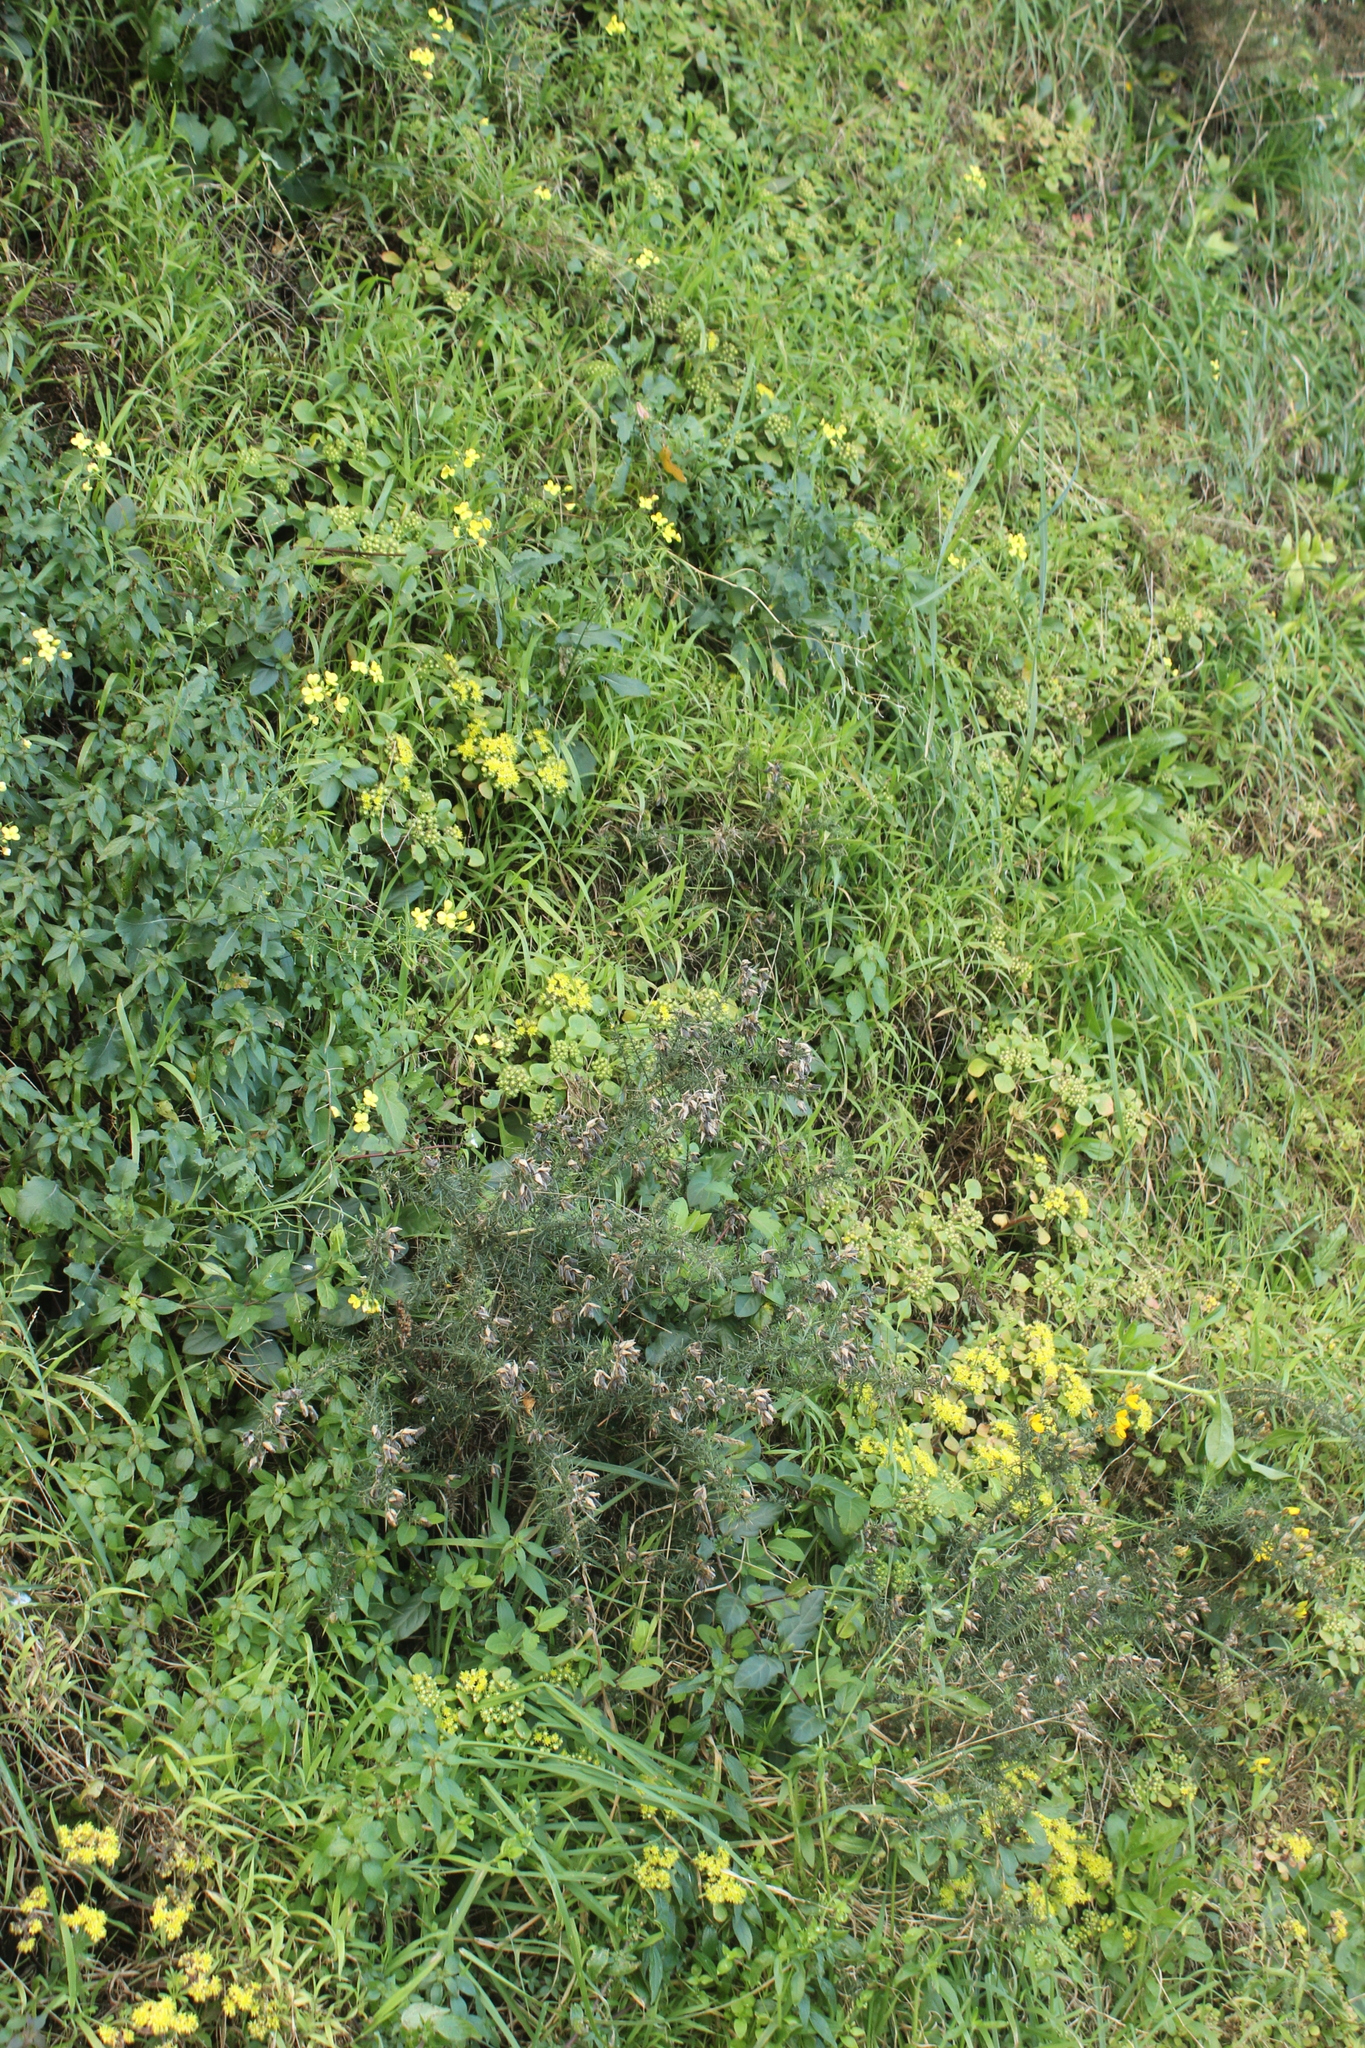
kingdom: Plantae
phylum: Tracheophyta
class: Magnoliopsida
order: Saxifragales
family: Crassulaceae
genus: Aichryson
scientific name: Aichryson laxum
